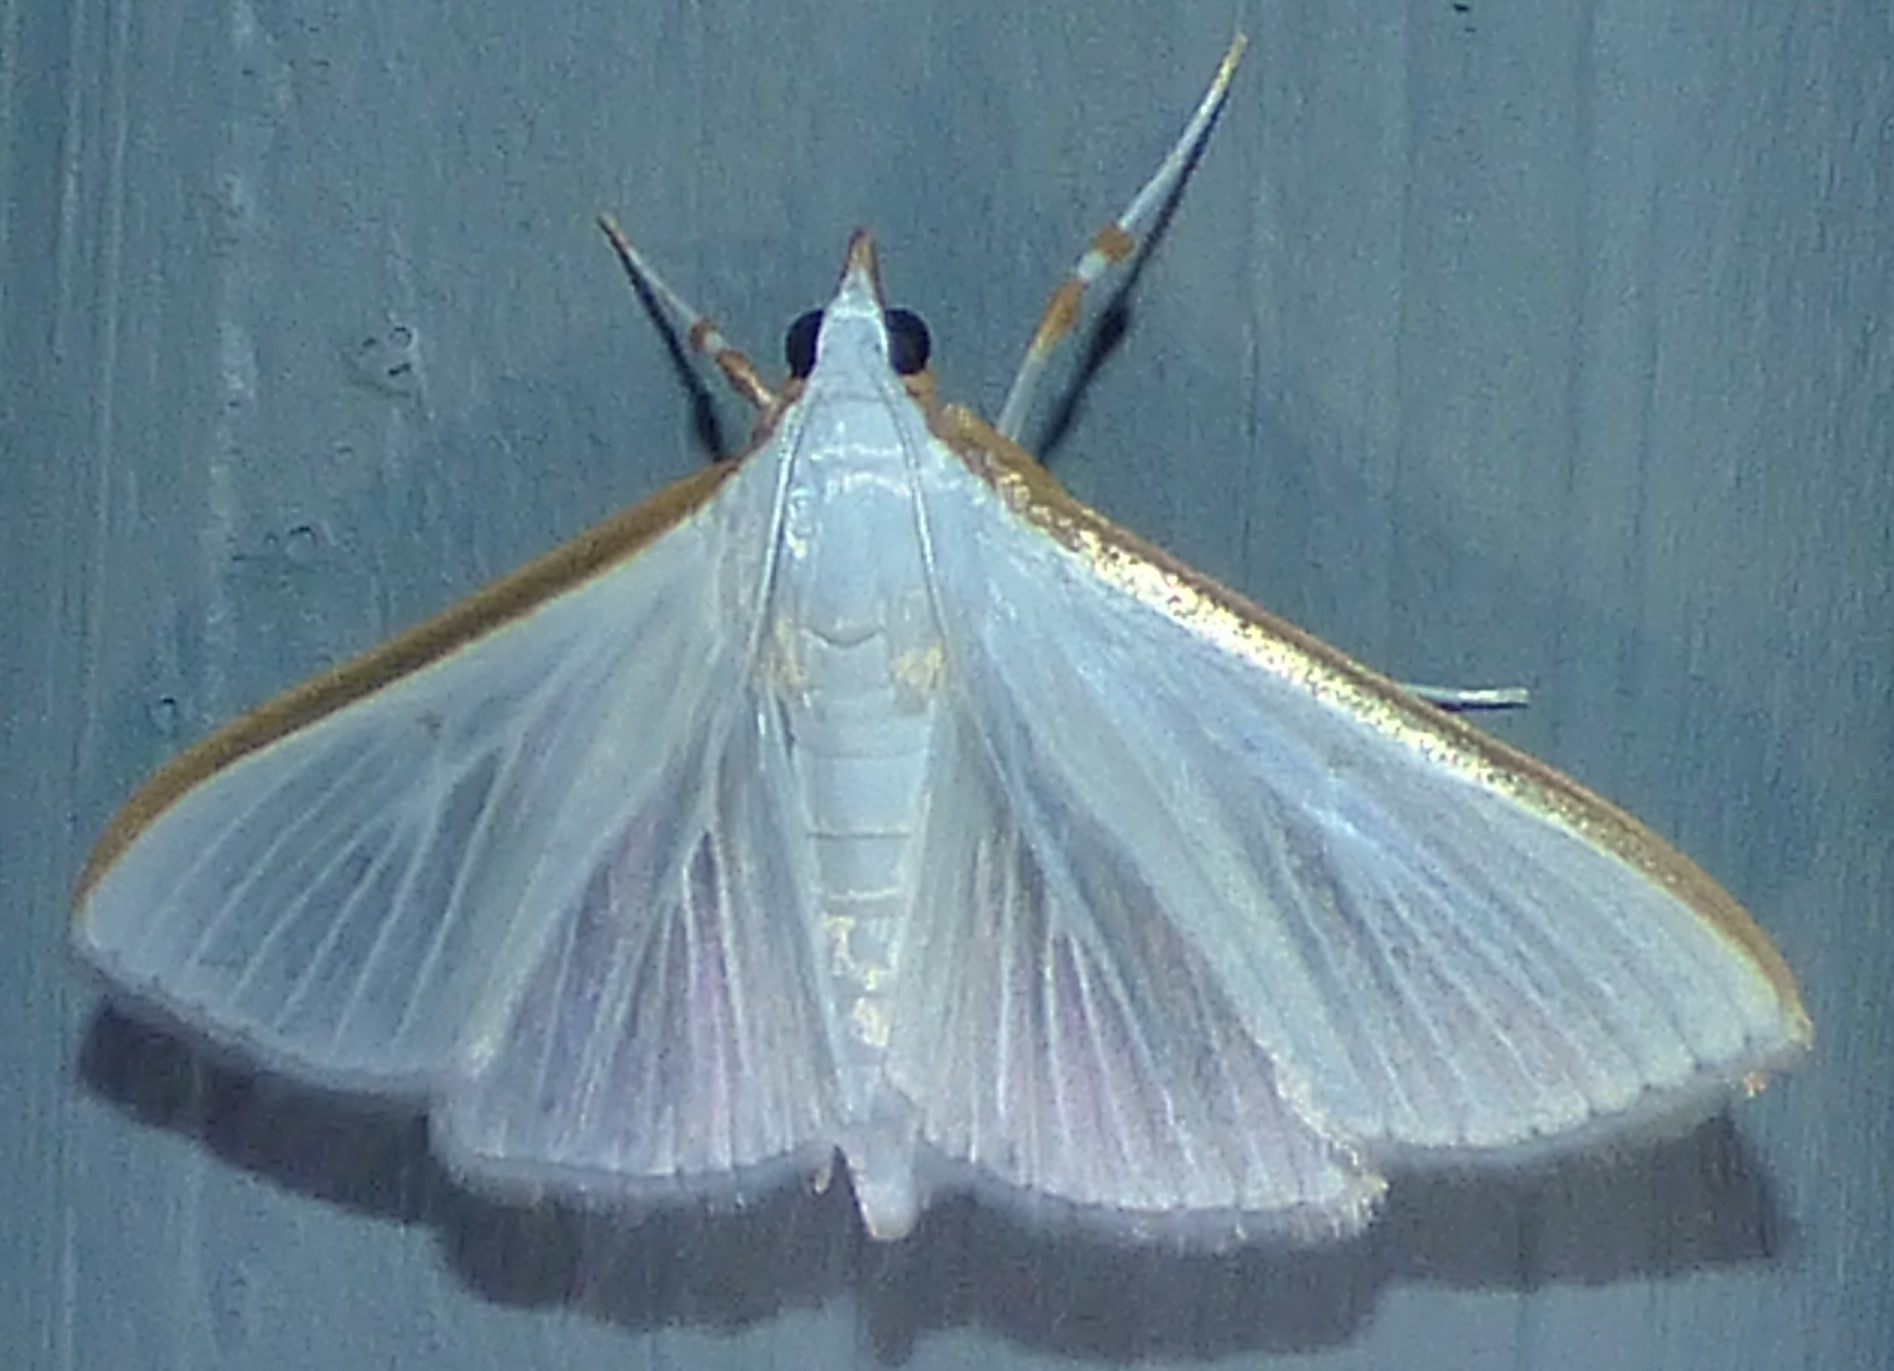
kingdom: Animalia
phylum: Arthropoda
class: Insecta
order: Lepidoptera
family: Crambidae
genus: Diaphania
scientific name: Diaphania costata
